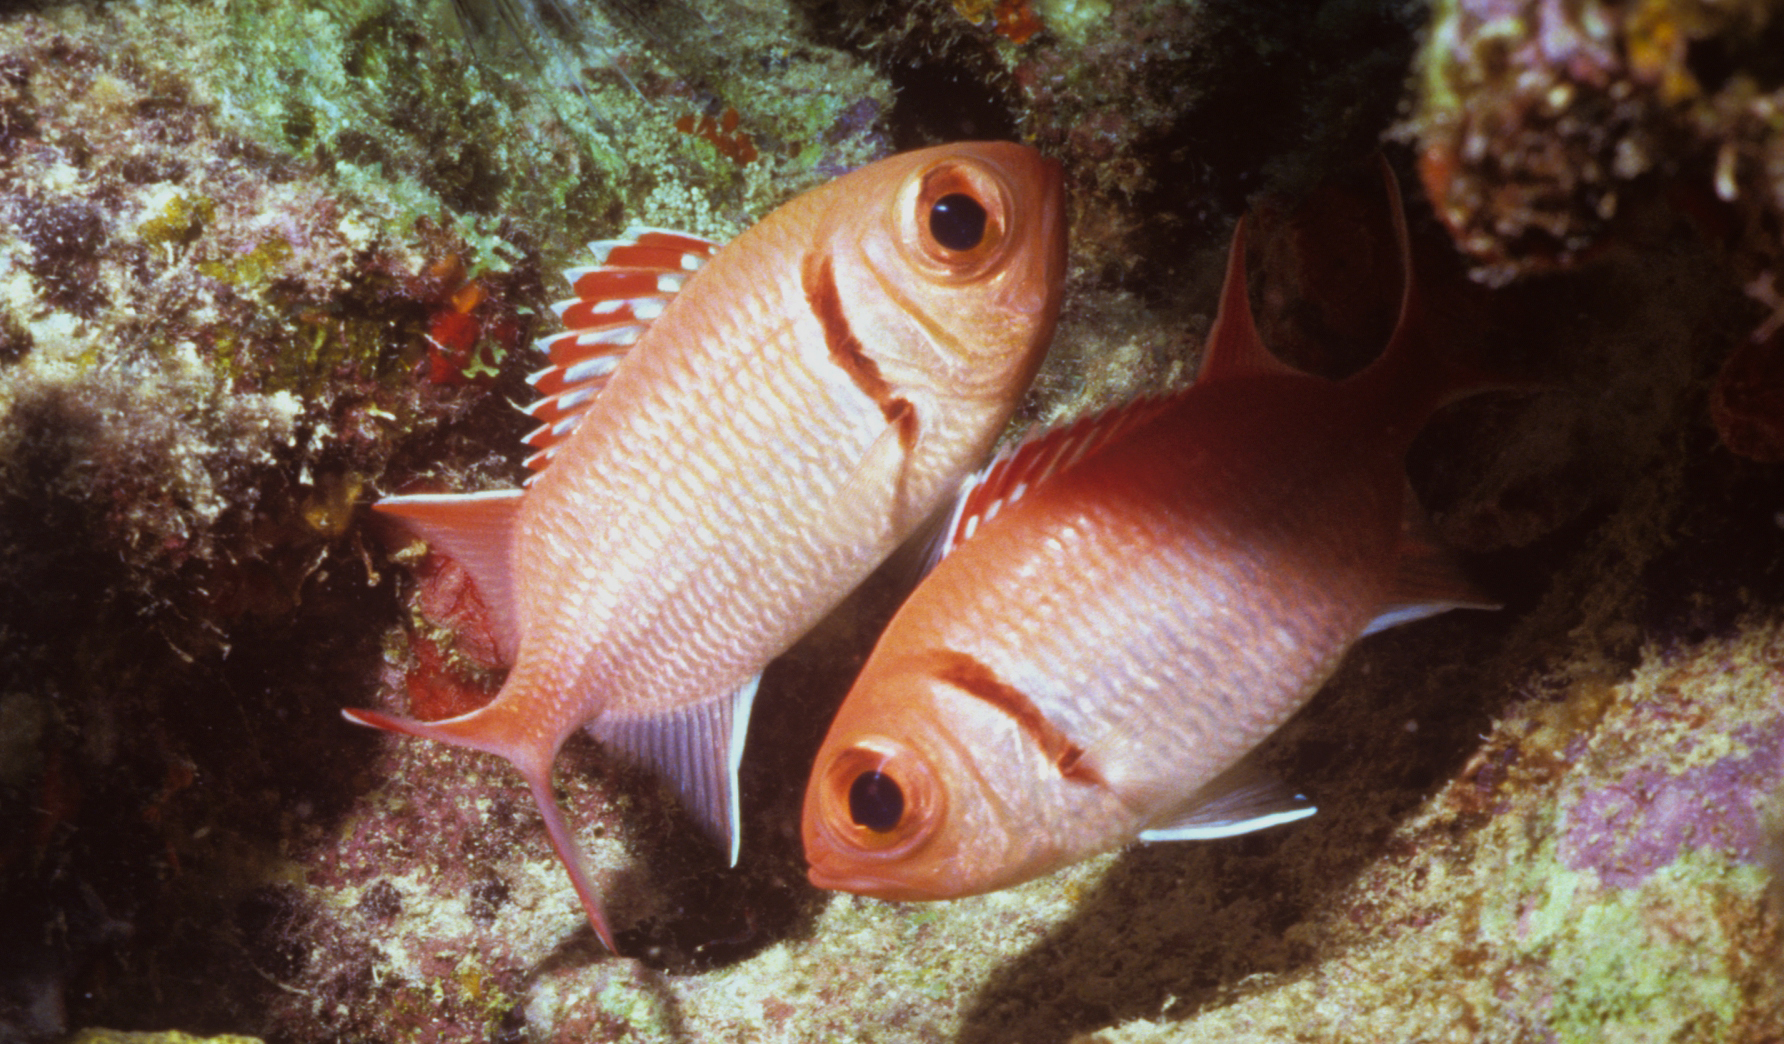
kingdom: Animalia
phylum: Chordata
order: Beryciformes
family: Holocentridae
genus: Myripristis
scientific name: Myripristis jacobus
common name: Blackbar soldierfish
